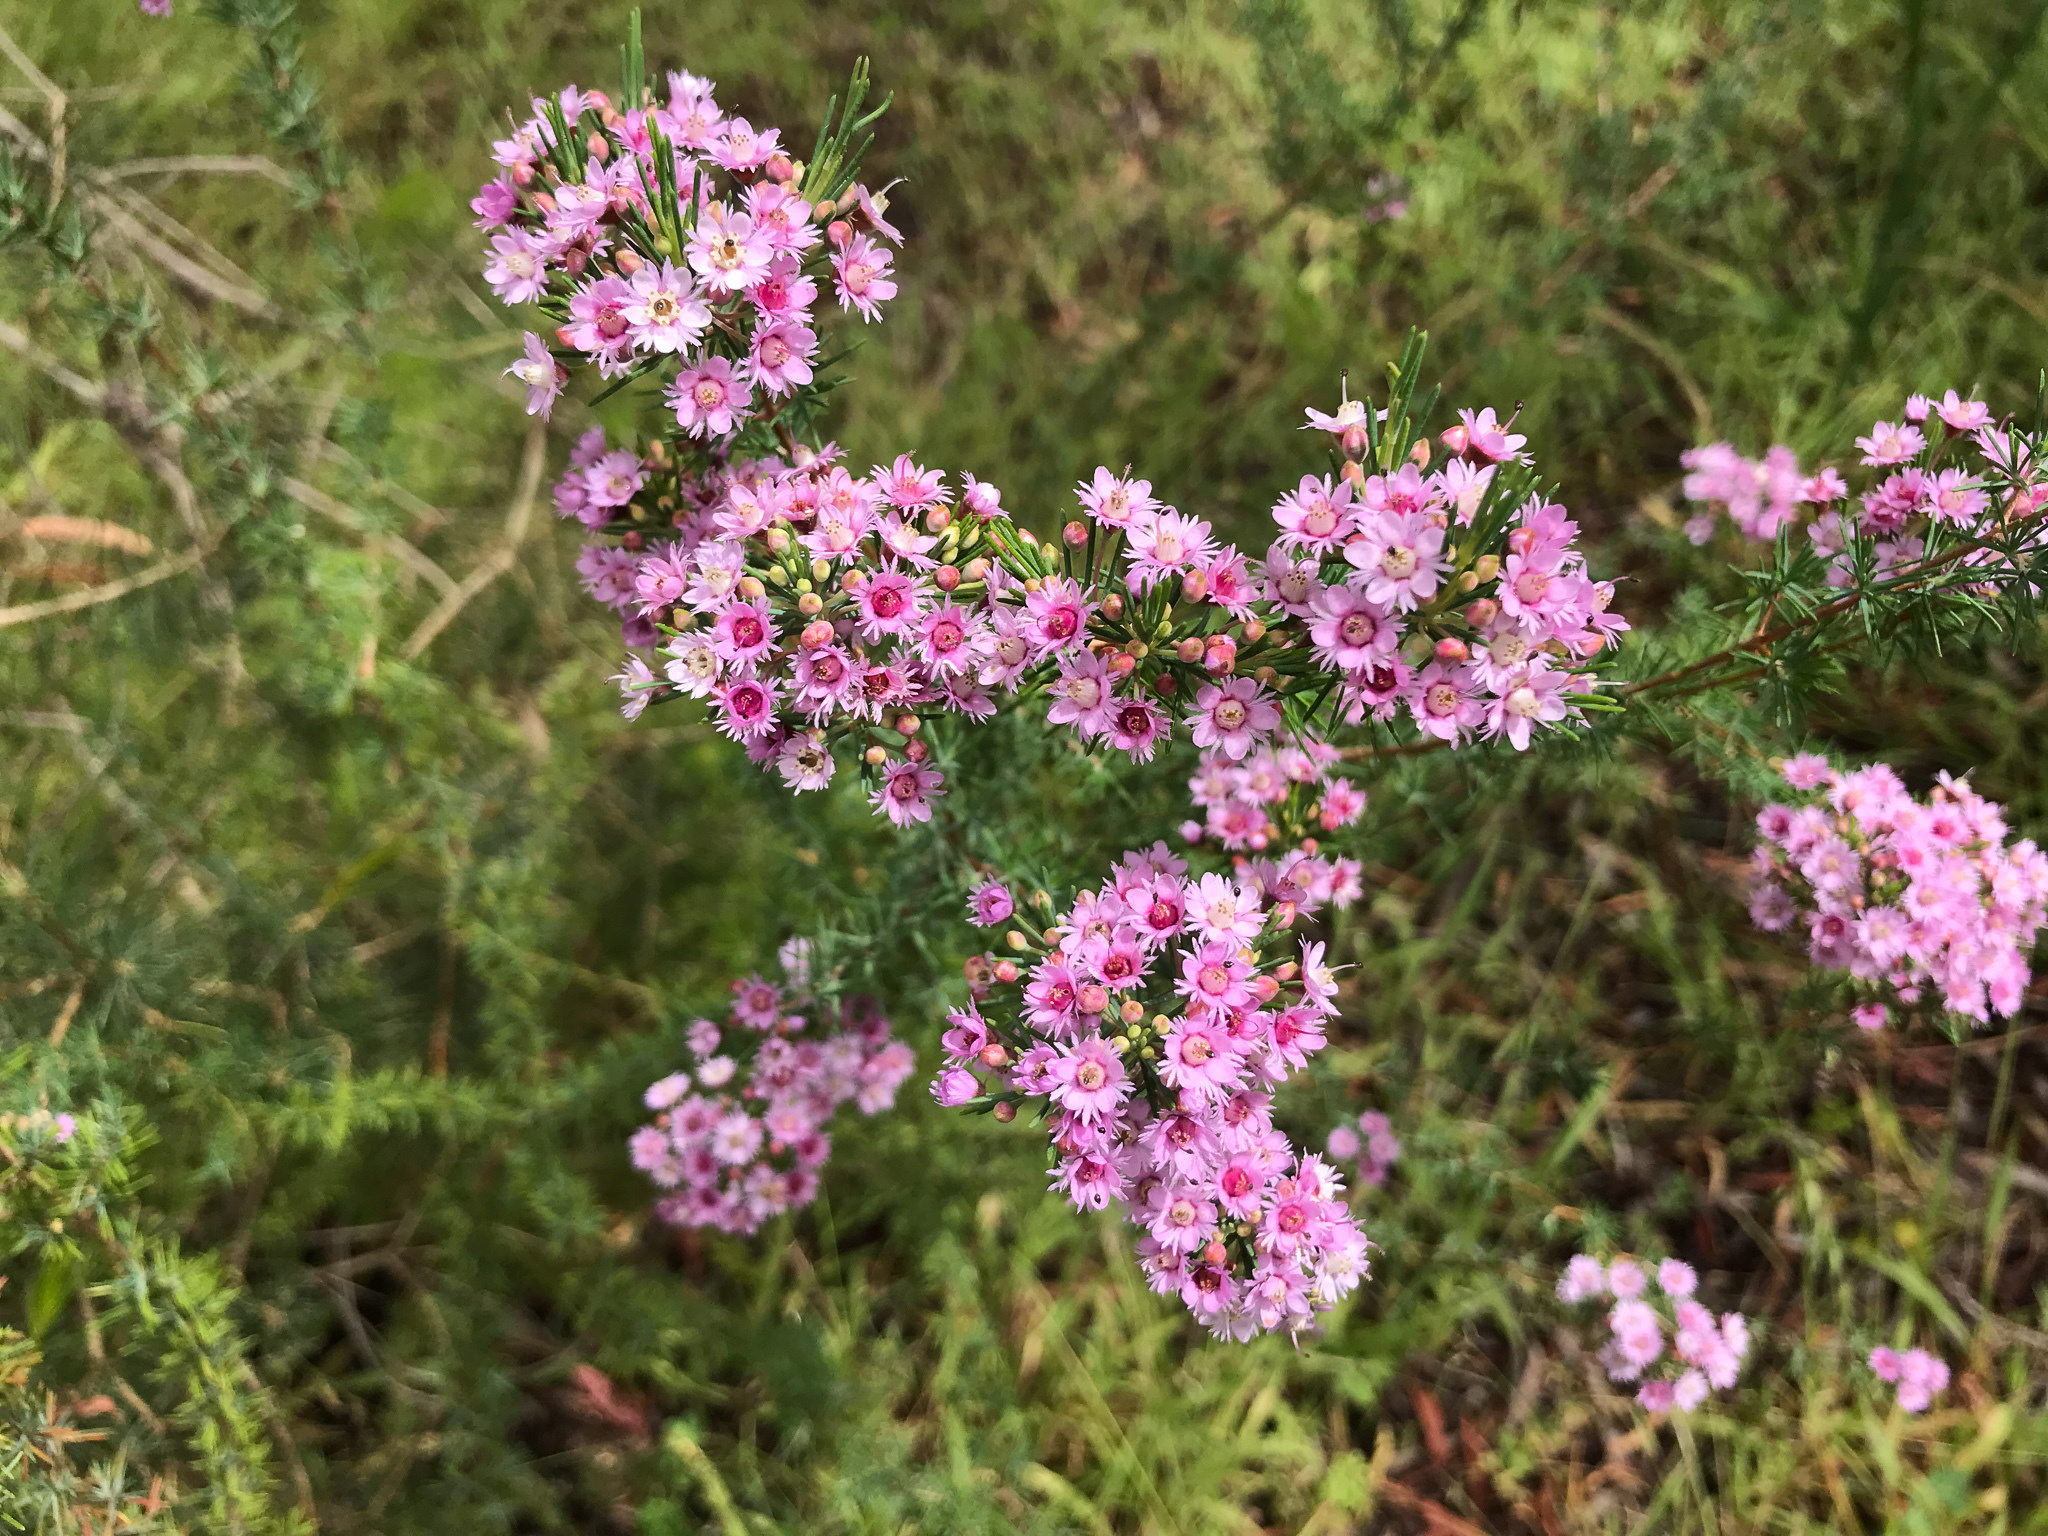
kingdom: Plantae
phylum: Tracheophyta
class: Magnoliopsida
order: Myrtales
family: Myrtaceae
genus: Verticordia
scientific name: Verticordia plumosa
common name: Plume feather-flower
